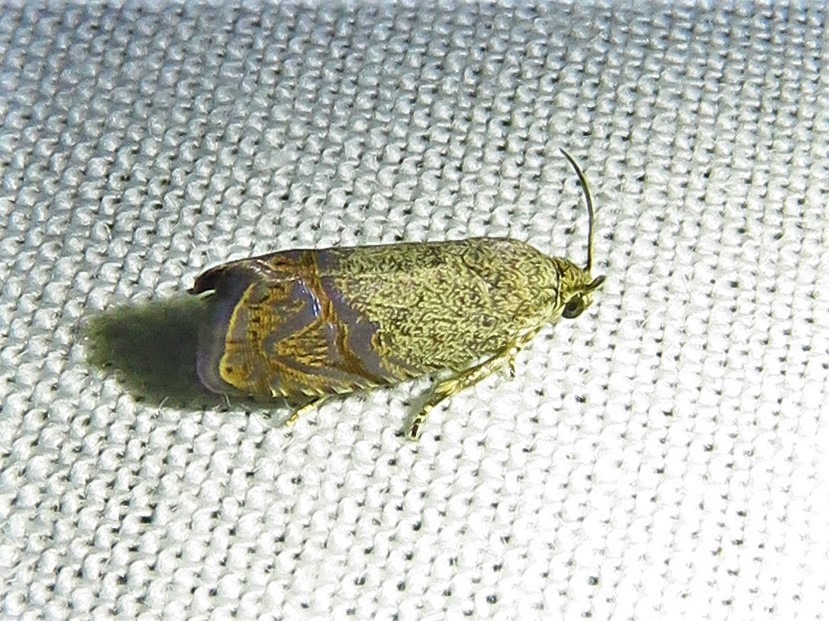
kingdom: Animalia
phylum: Arthropoda
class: Insecta
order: Lepidoptera
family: Tortricidae
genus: Ethelgoda
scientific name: Ethelgoda texanana
